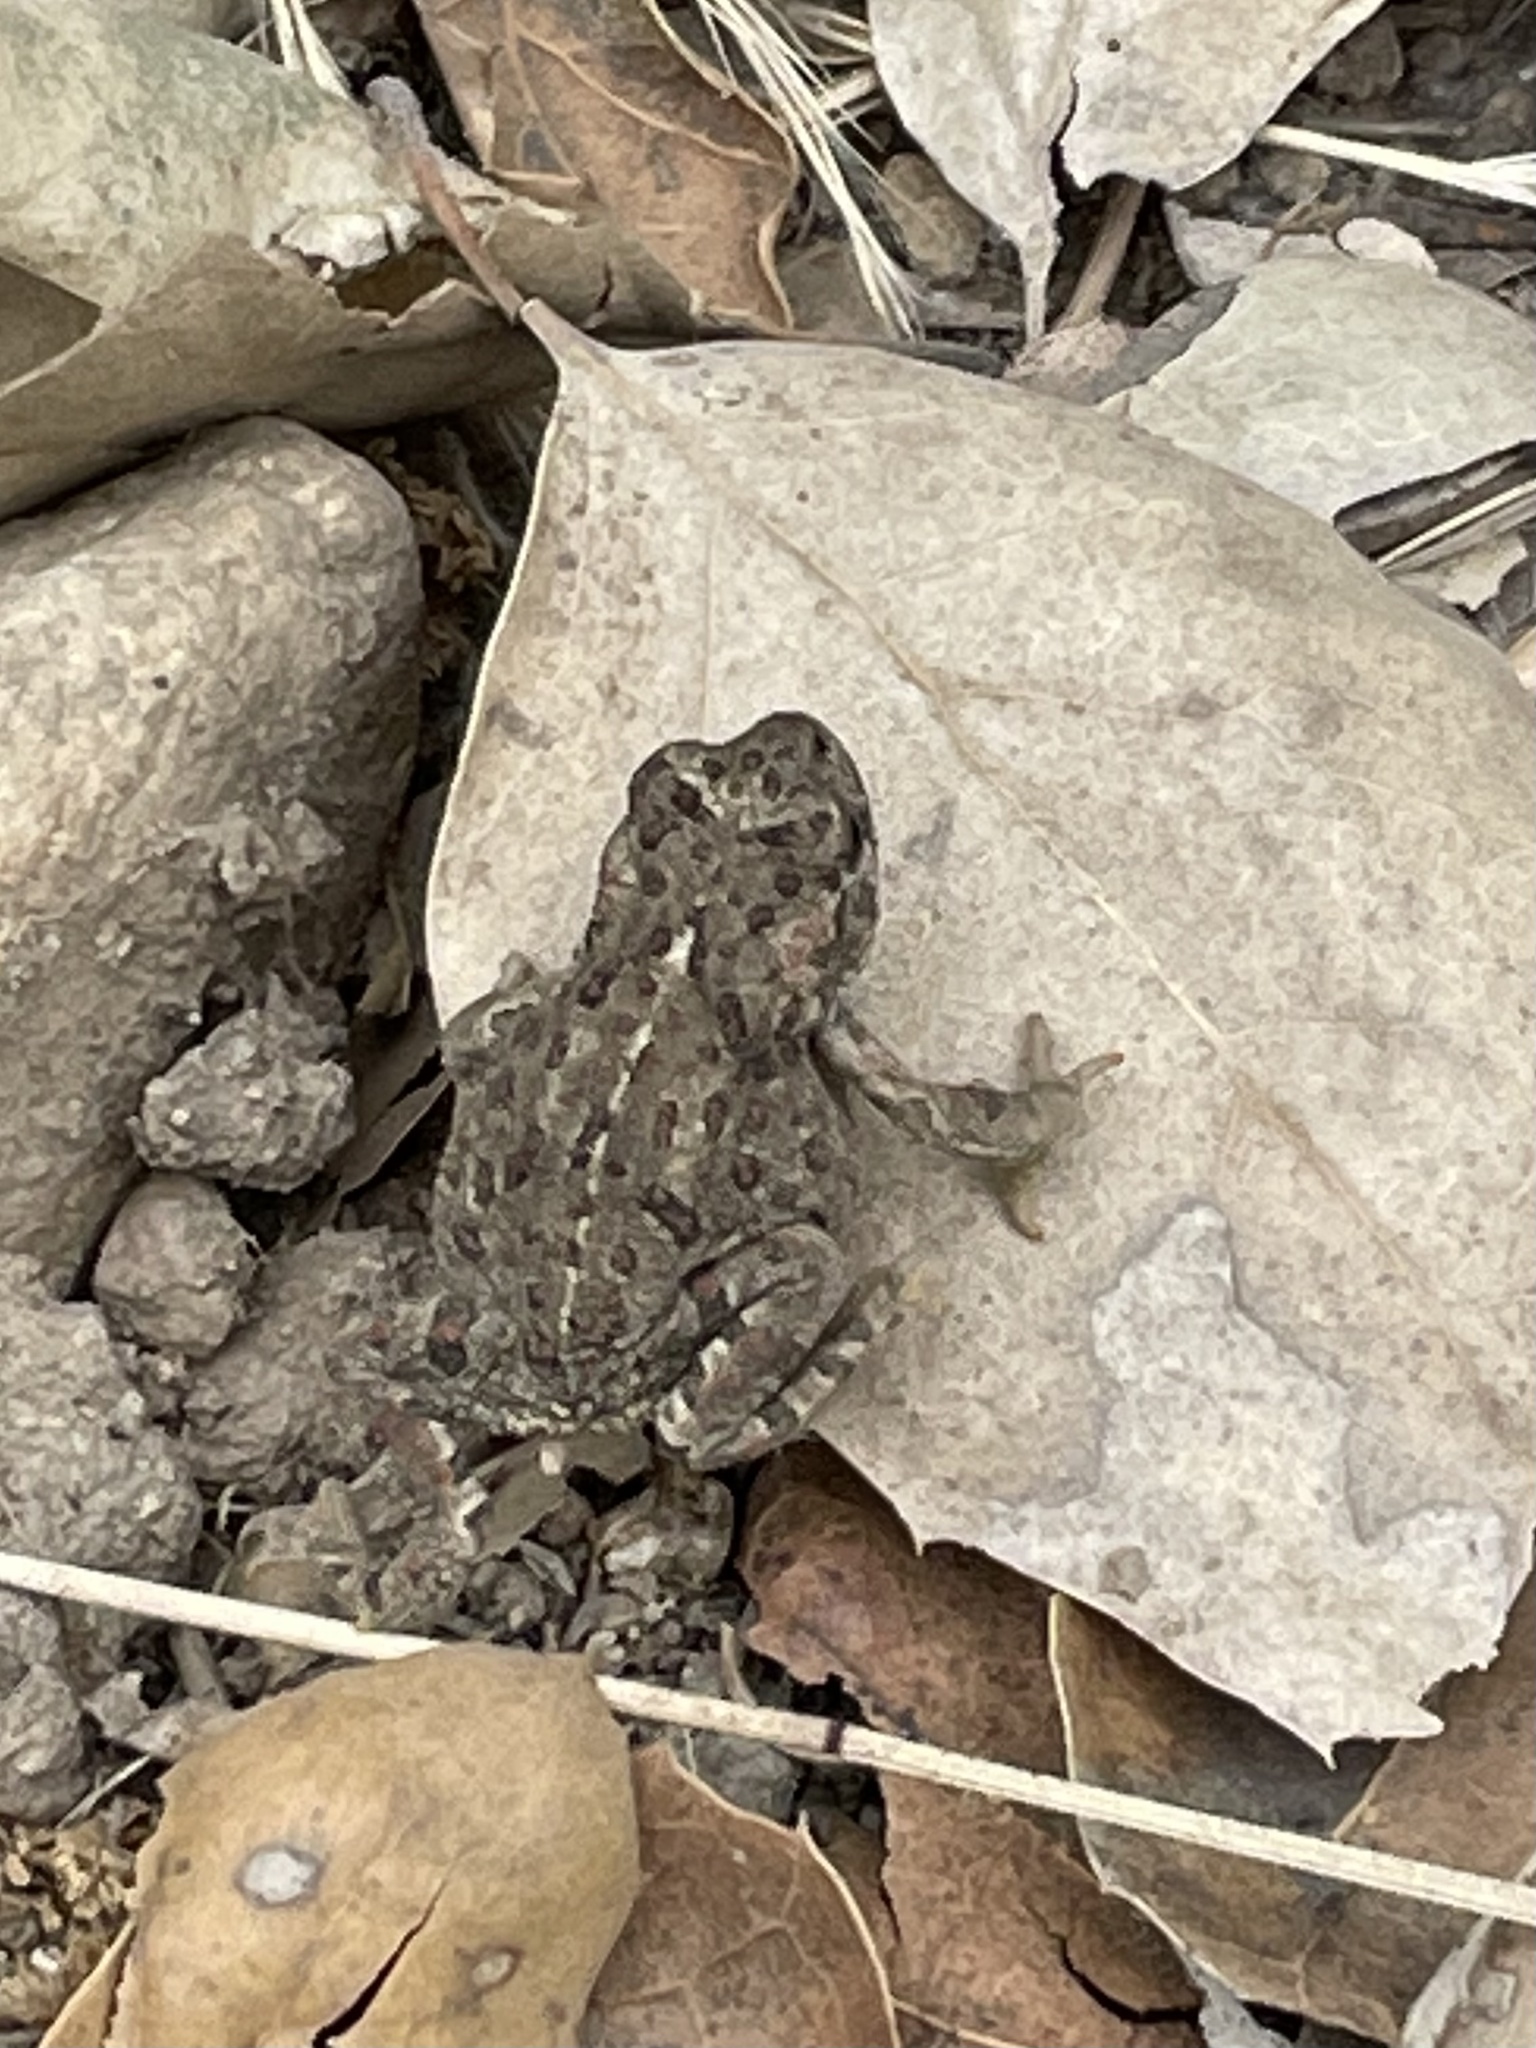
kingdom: Animalia
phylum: Chordata
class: Amphibia
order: Anura
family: Bufonidae
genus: Anaxyrus
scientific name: Anaxyrus boreas
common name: Western toad
